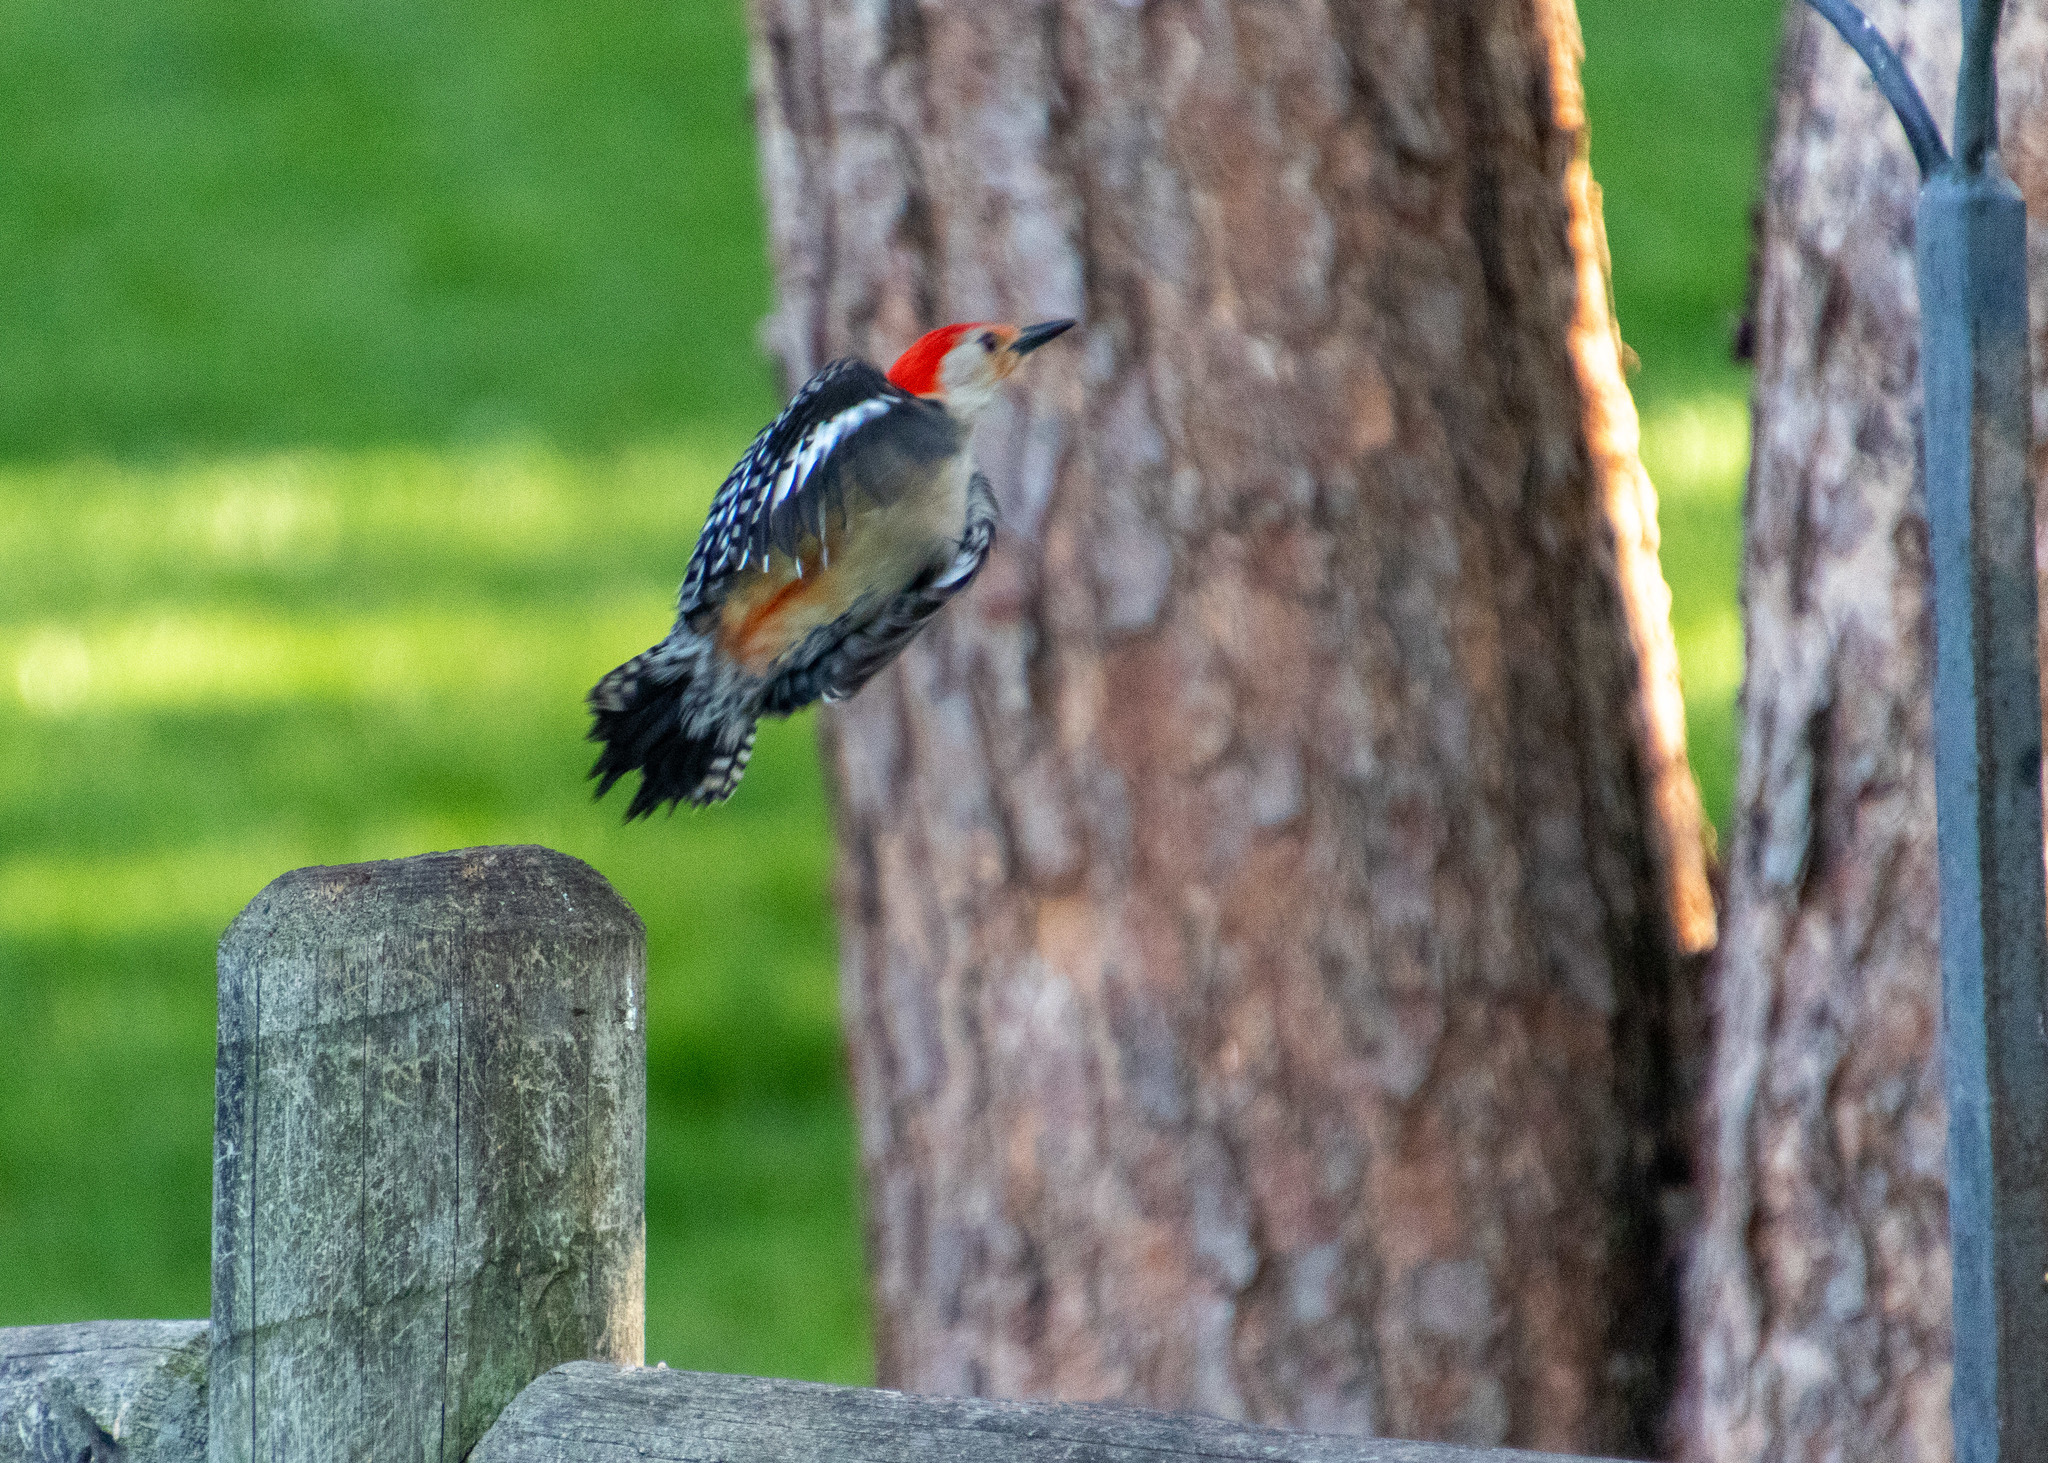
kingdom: Animalia
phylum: Chordata
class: Aves
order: Piciformes
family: Picidae
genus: Melanerpes
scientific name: Melanerpes carolinus
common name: Red-bellied woodpecker
